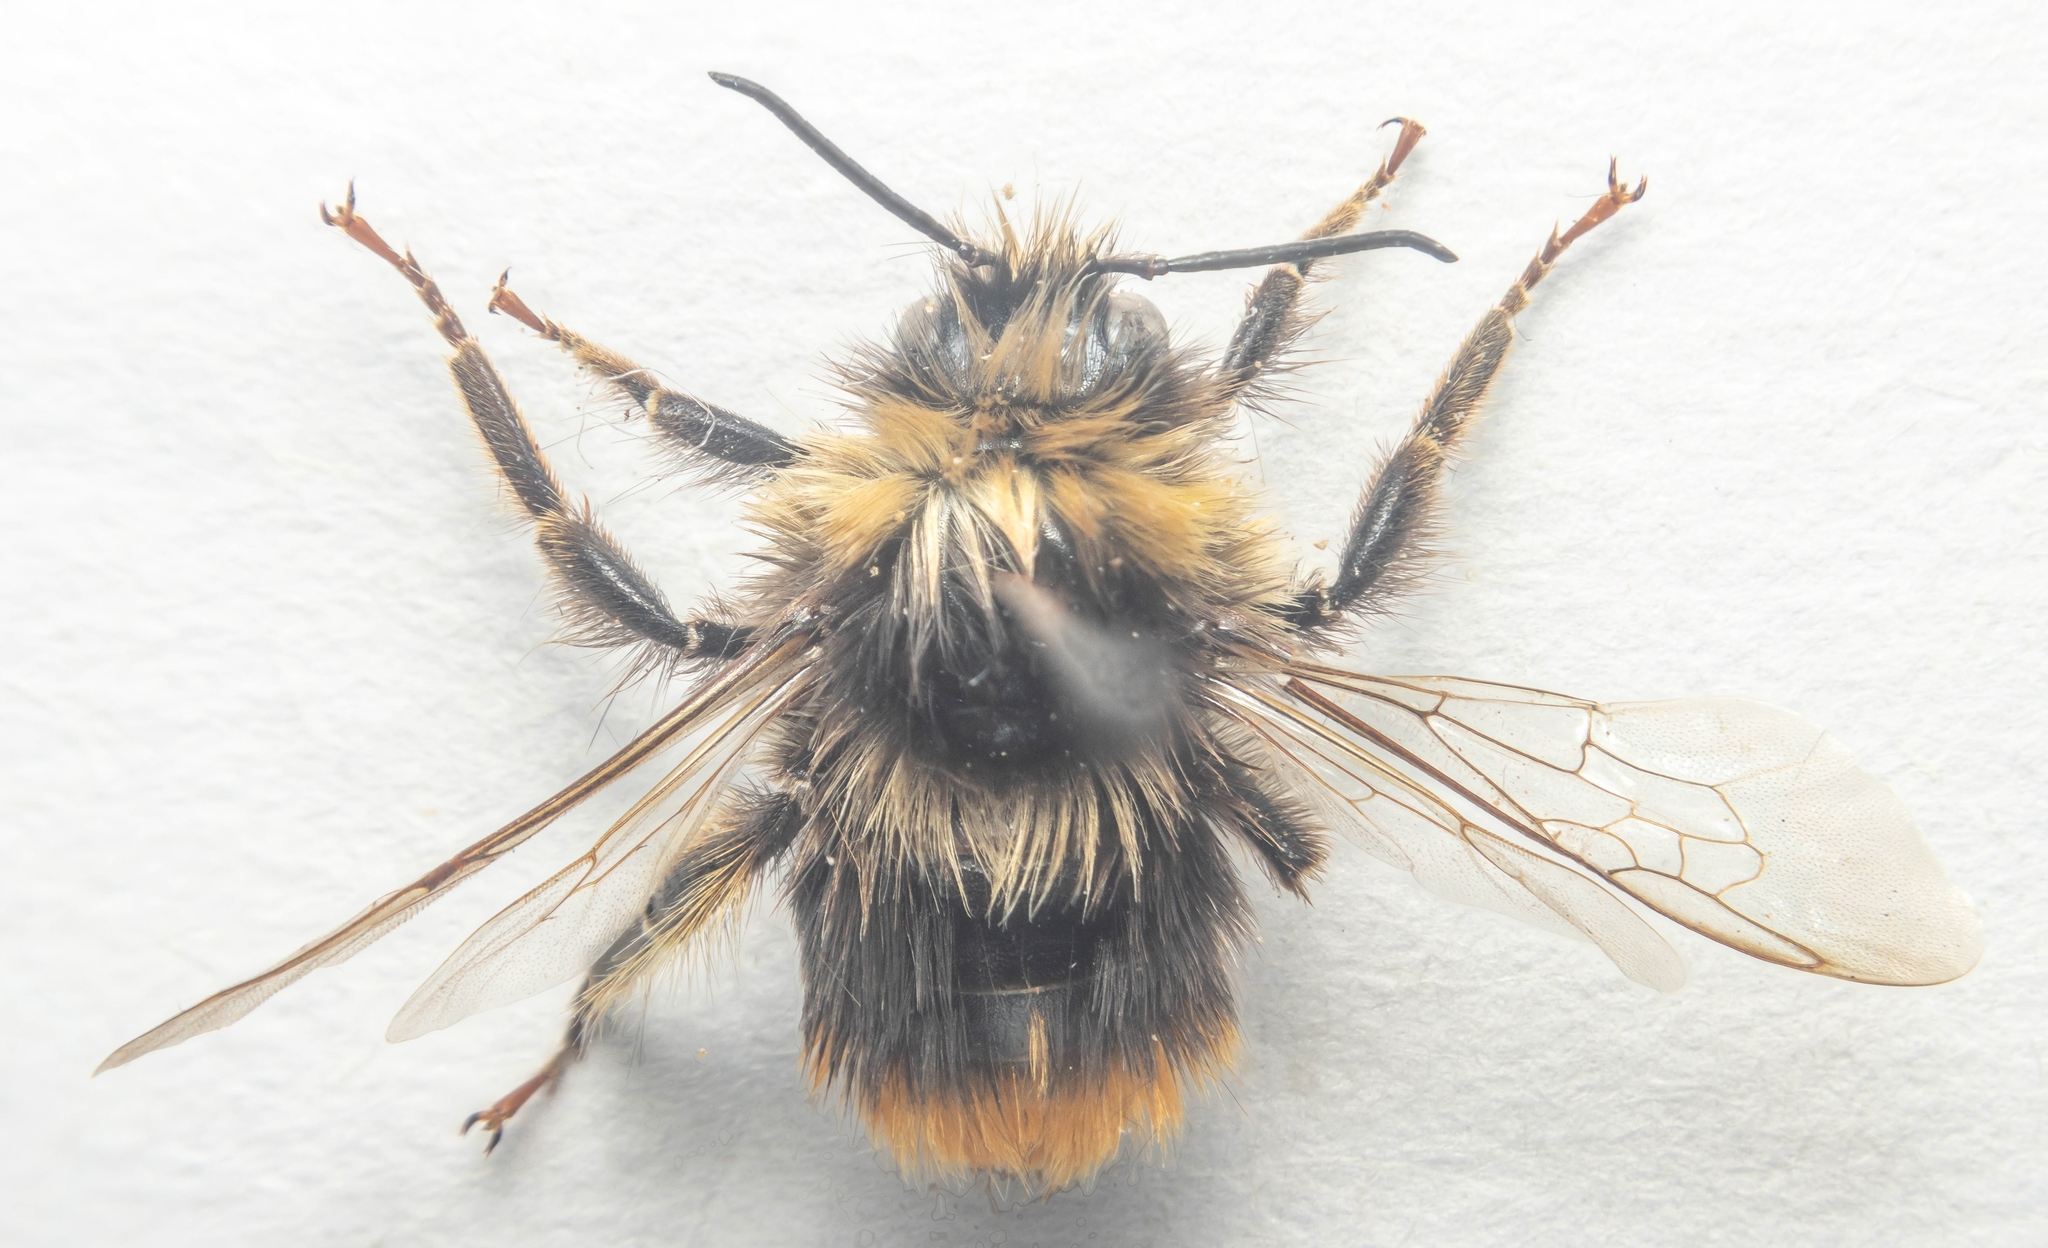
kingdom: Animalia
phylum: Arthropoda
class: Insecta
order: Hymenoptera
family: Apidae
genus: Bombus
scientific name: Bombus pratorum
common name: Early humble-bee
